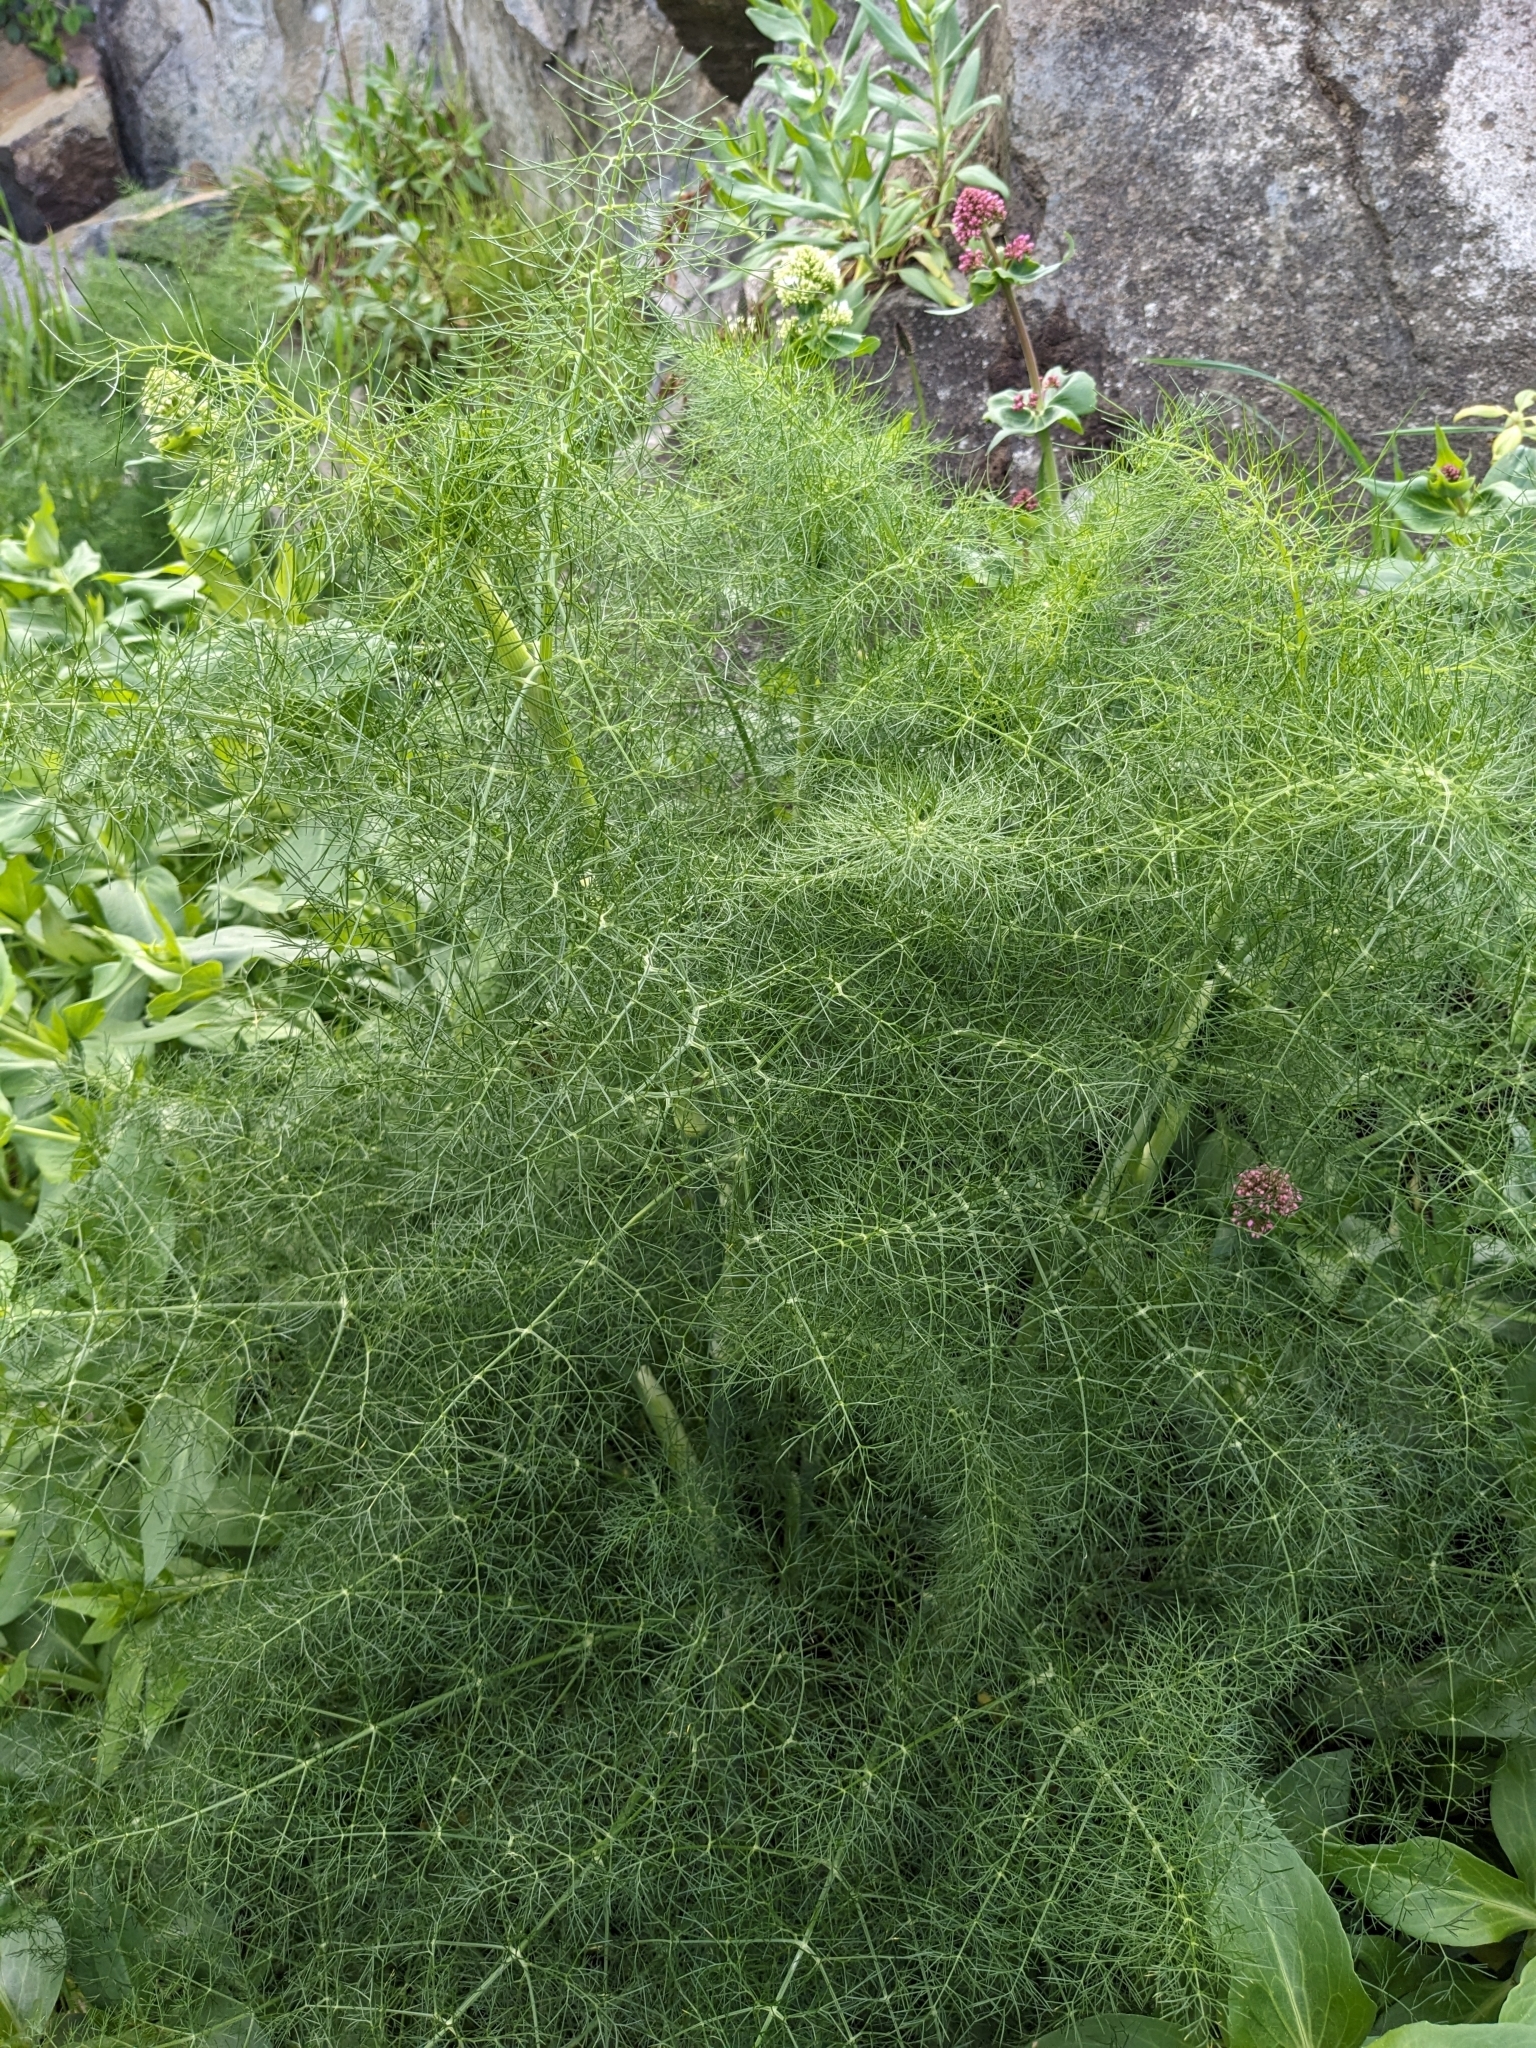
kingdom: Plantae
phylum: Tracheophyta
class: Magnoliopsida
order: Apiales
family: Apiaceae
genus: Foeniculum
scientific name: Foeniculum vulgare
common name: Fennel
